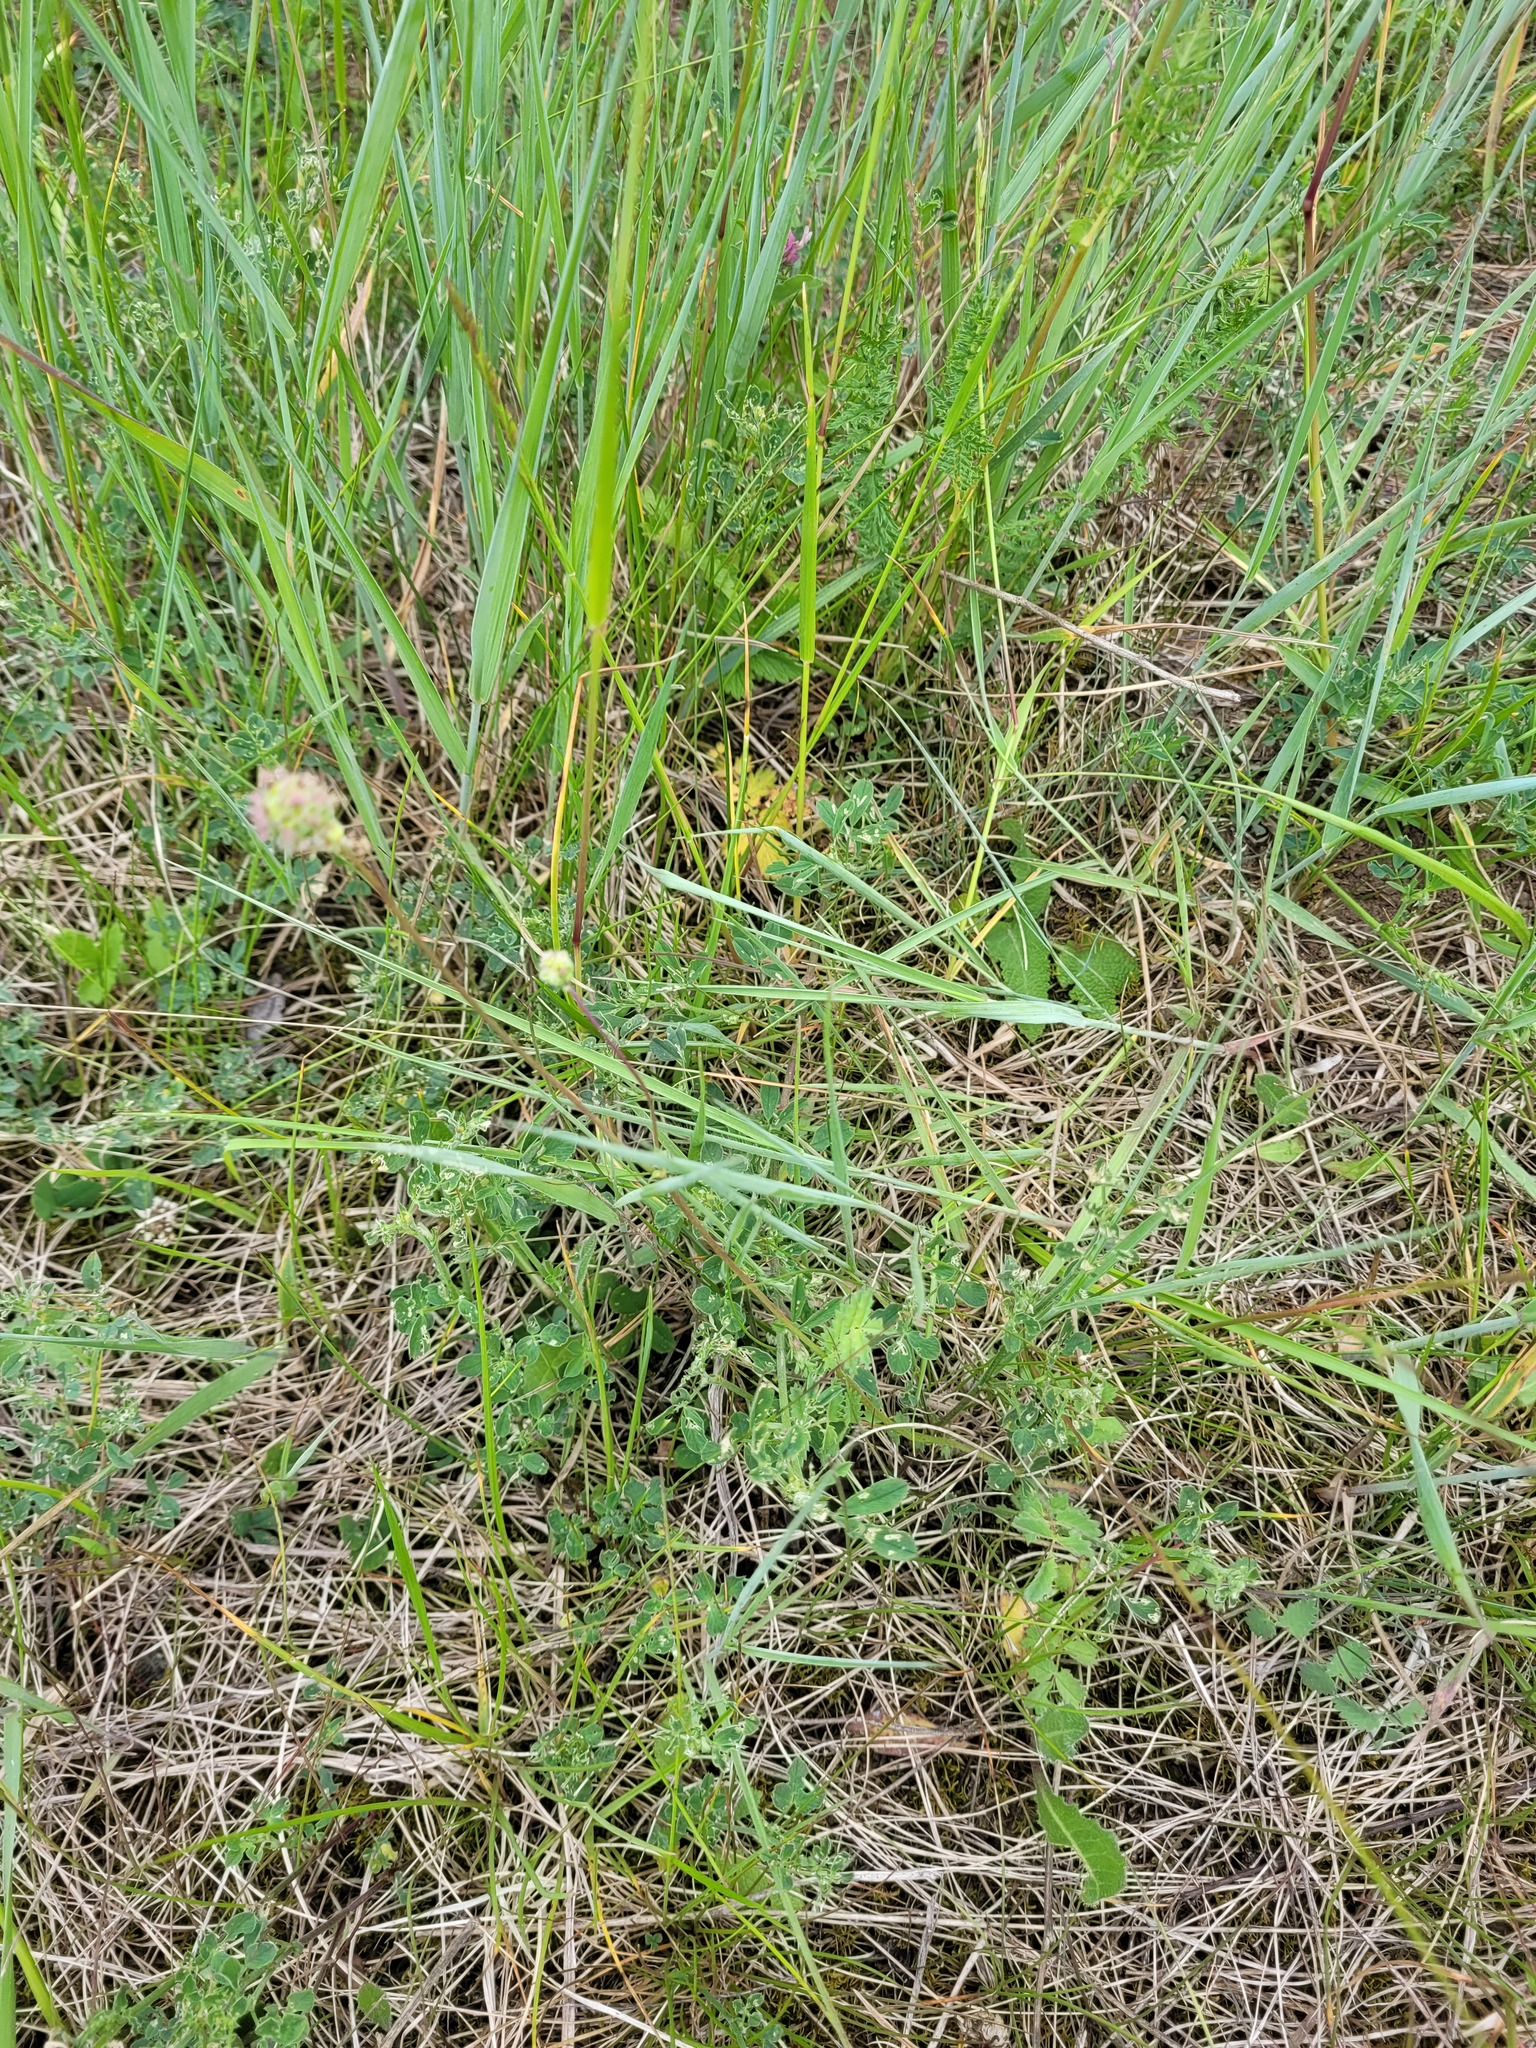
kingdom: Plantae
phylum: Tracheophyta
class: Magnoliopsida
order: Rosales
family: Rosaceae
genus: Poterium
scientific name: Poterium sanguisorba
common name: Salad burnet
